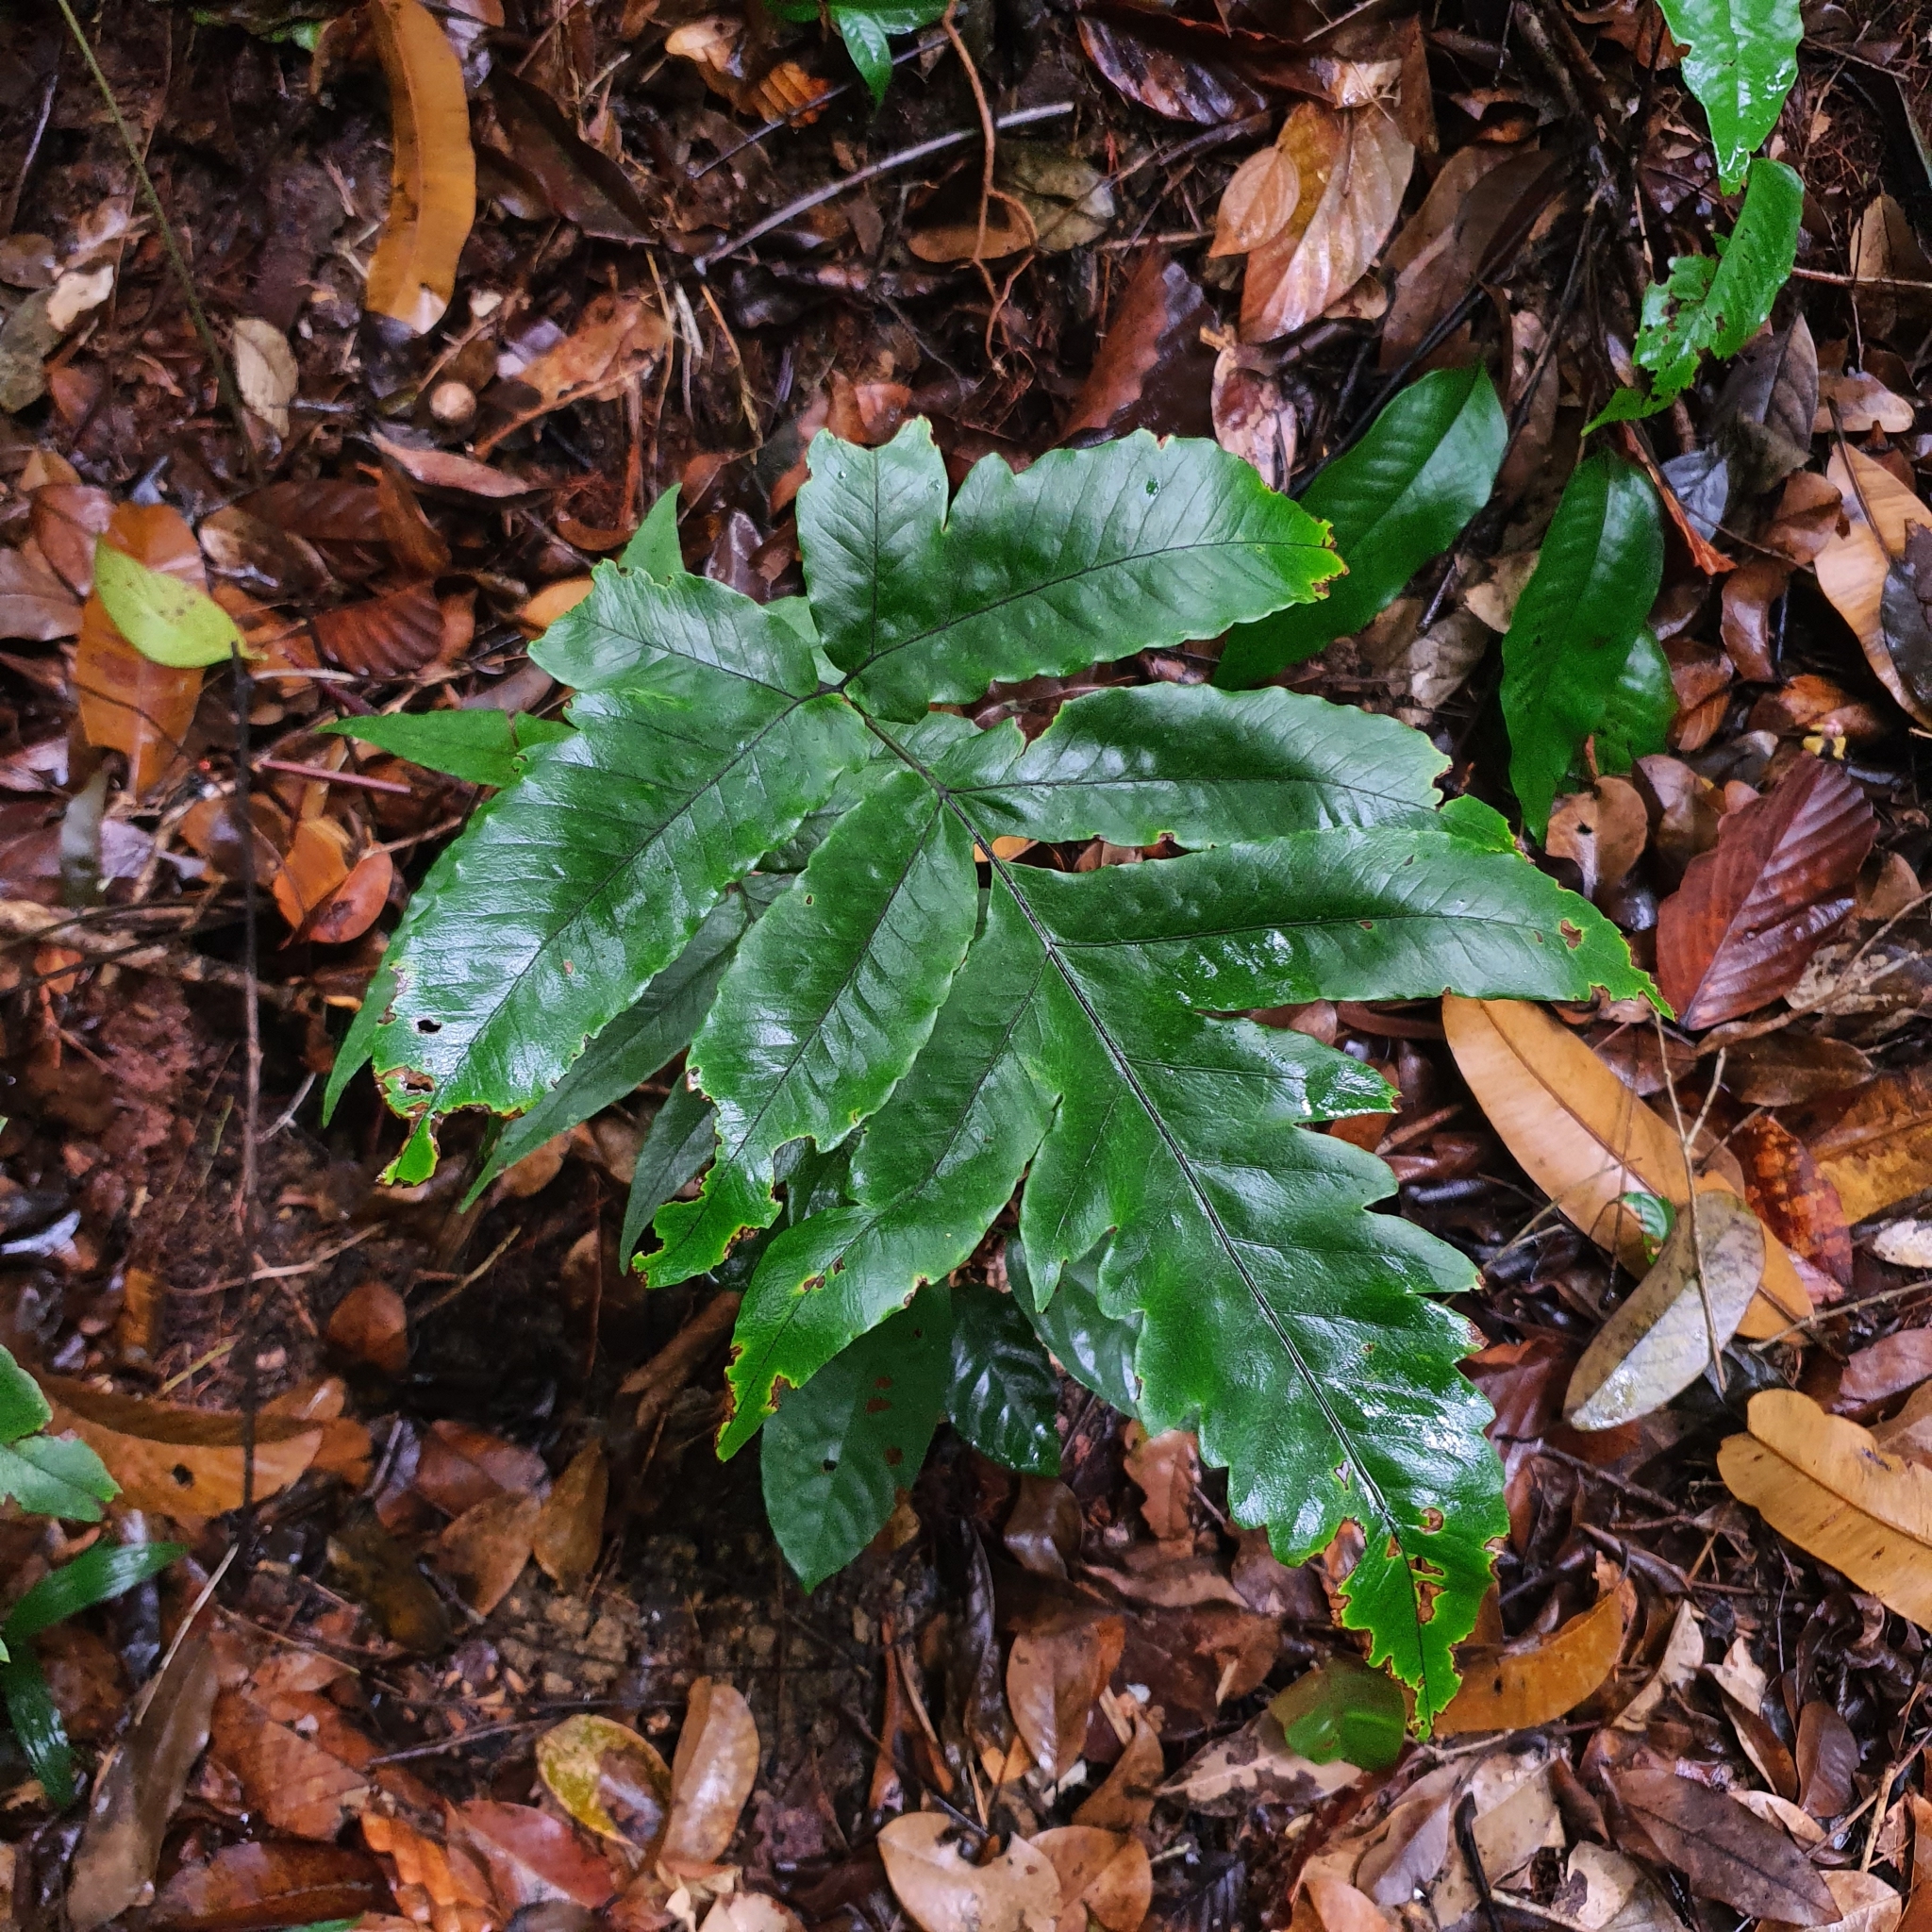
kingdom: Plantae
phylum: Tracheophyta
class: Polypodiopsida
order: Polypodiales
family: Tectariaceae
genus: Tectaria
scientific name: Tectaria barberi
